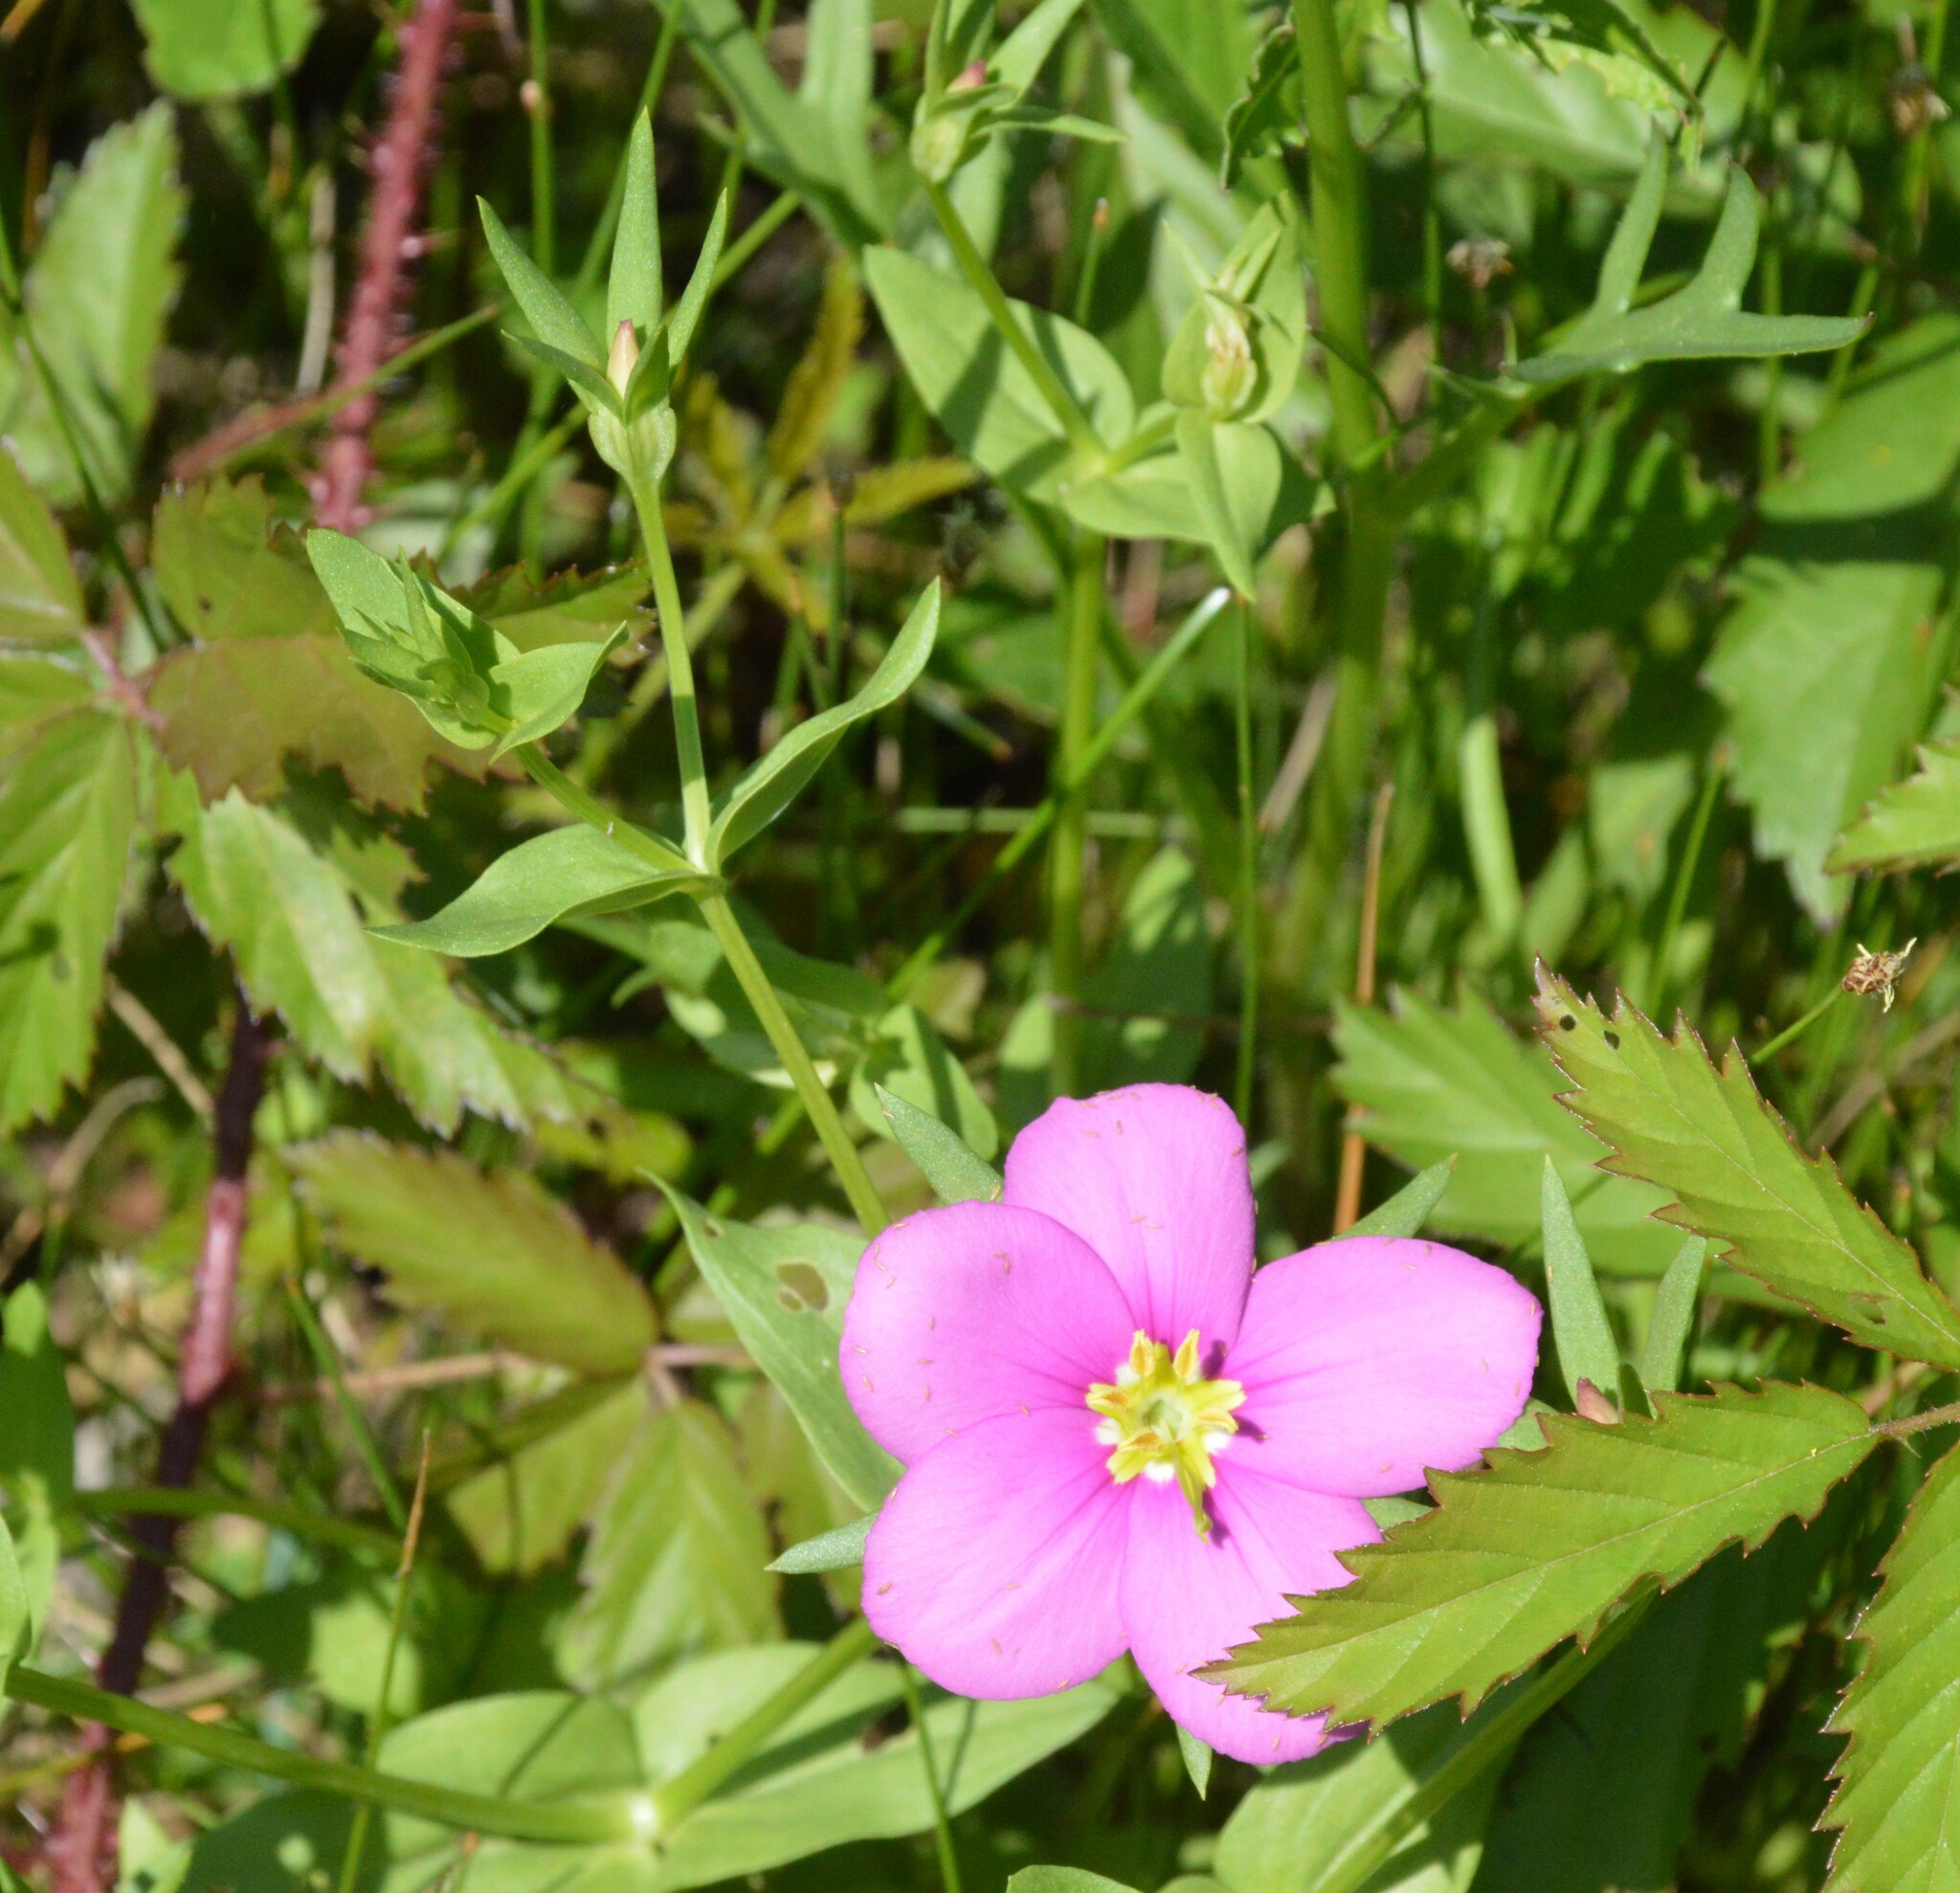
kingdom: Plantae
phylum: Tracheophyta
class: Magnoliopsida
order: Gentianales
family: Gentianaceae
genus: Sabatia
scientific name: Sabatia campestris
